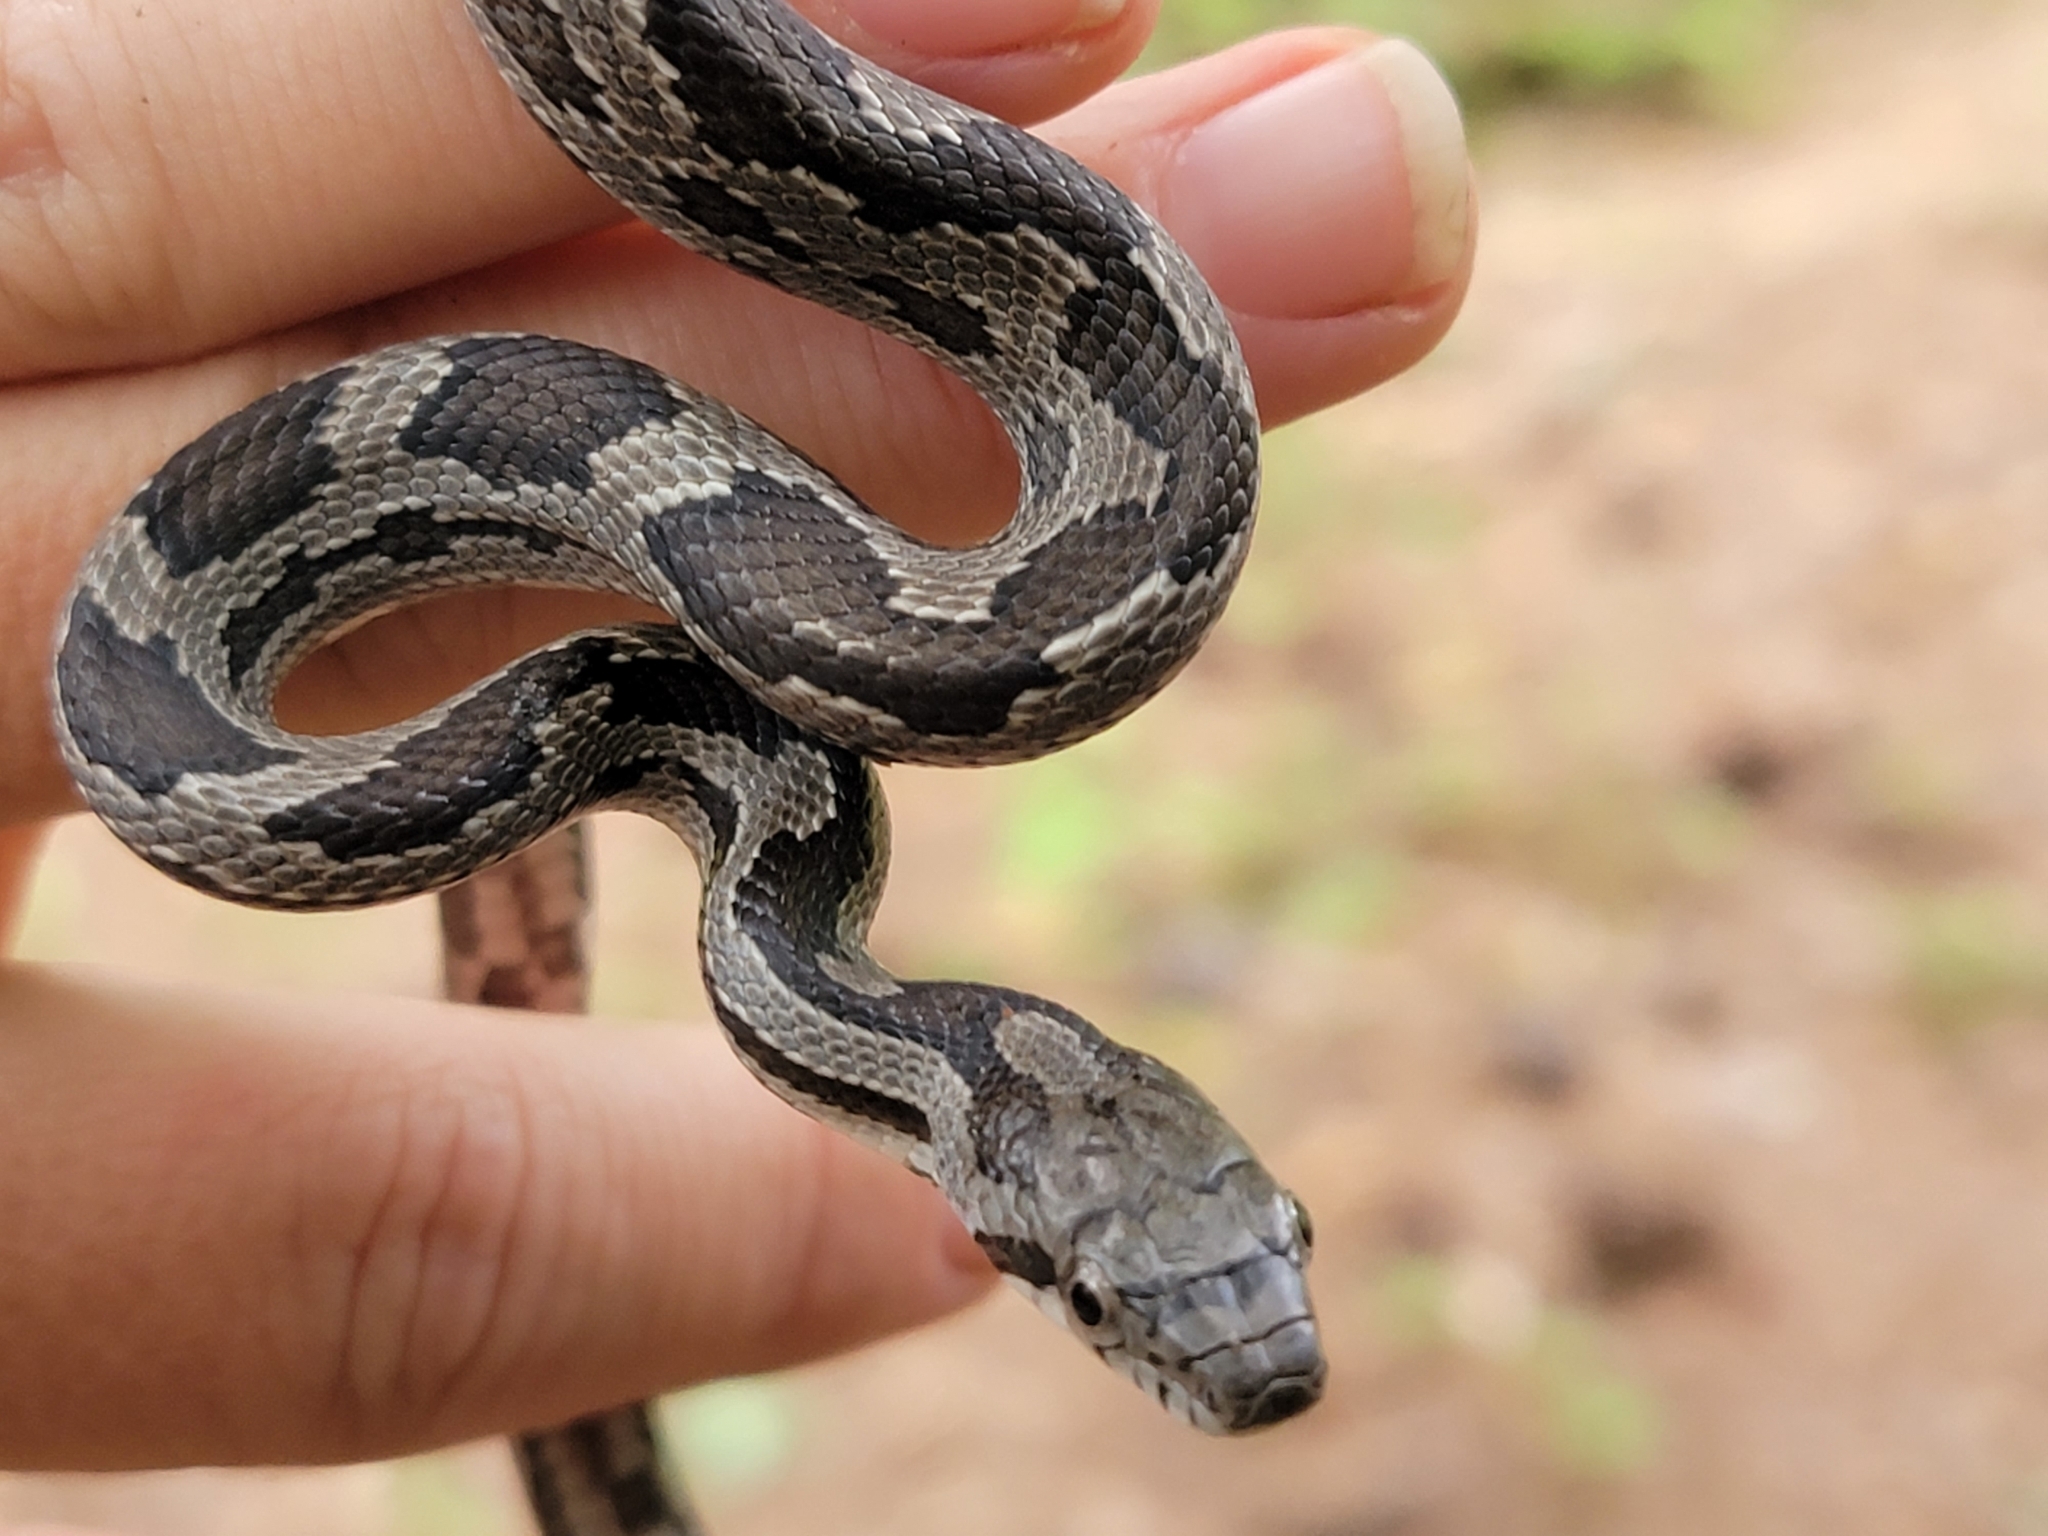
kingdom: Animalia
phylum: Chordata
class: Squamata
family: Colubridae
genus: Pantherophis
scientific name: Pantherophis
